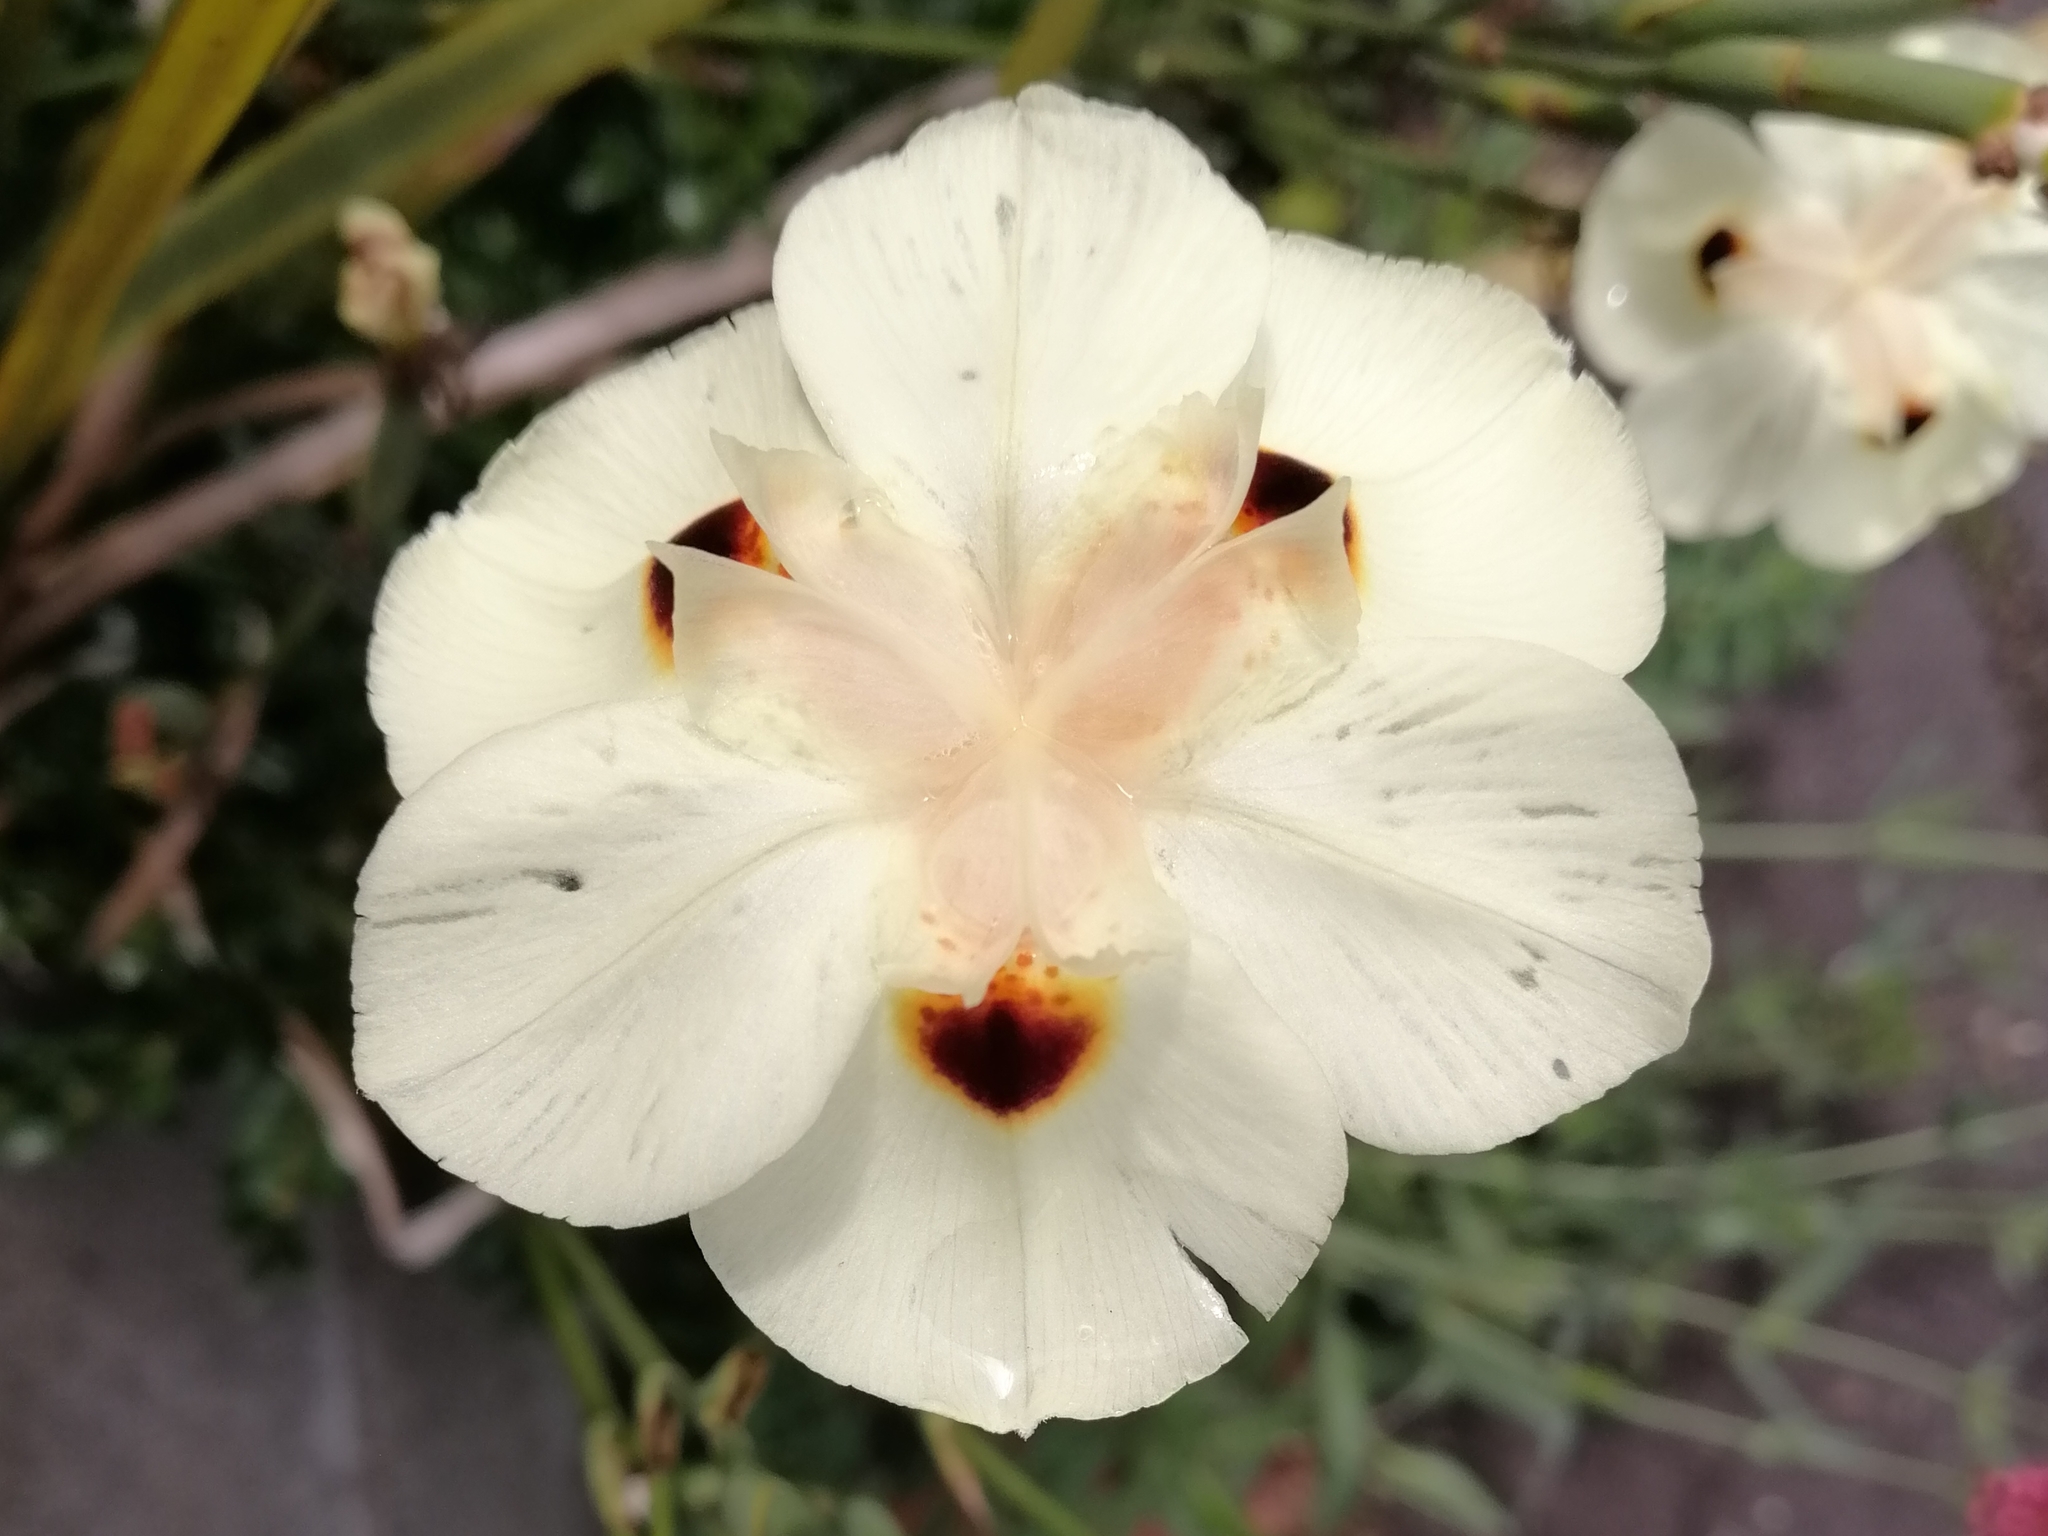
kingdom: Plantae
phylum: Tracheophyta
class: Liliopsida
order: Asparagales
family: Iridaceae
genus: Dietes
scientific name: Dietes bicolor
